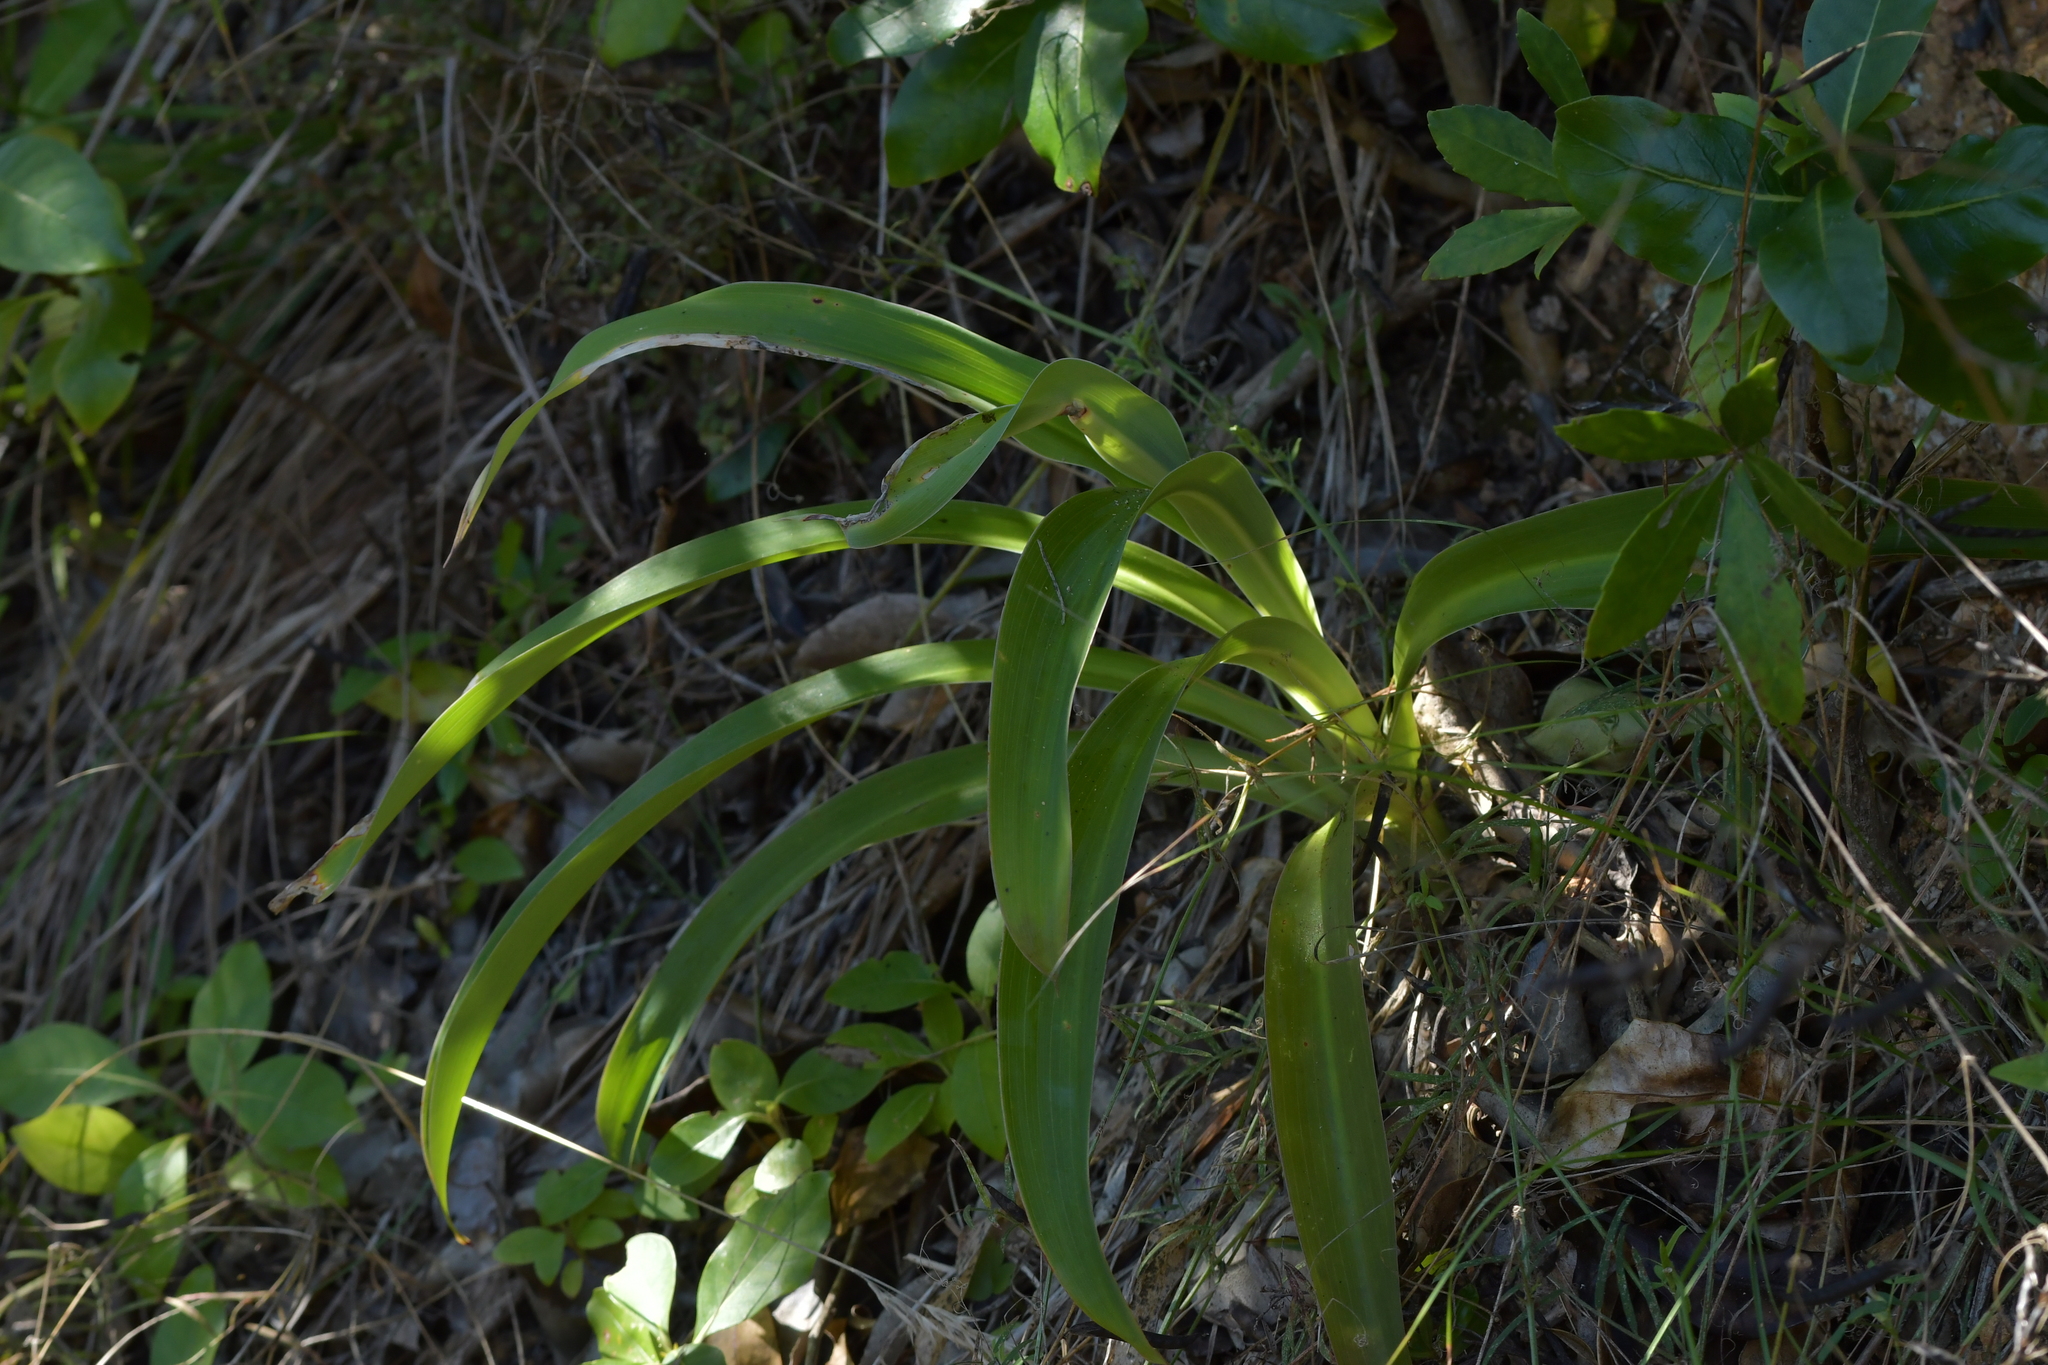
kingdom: Plantae
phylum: Tracheophyta
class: Liliopsida
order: Asparagales
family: Asparagaceae
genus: Arthropodium
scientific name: Arthropodium cirratum
